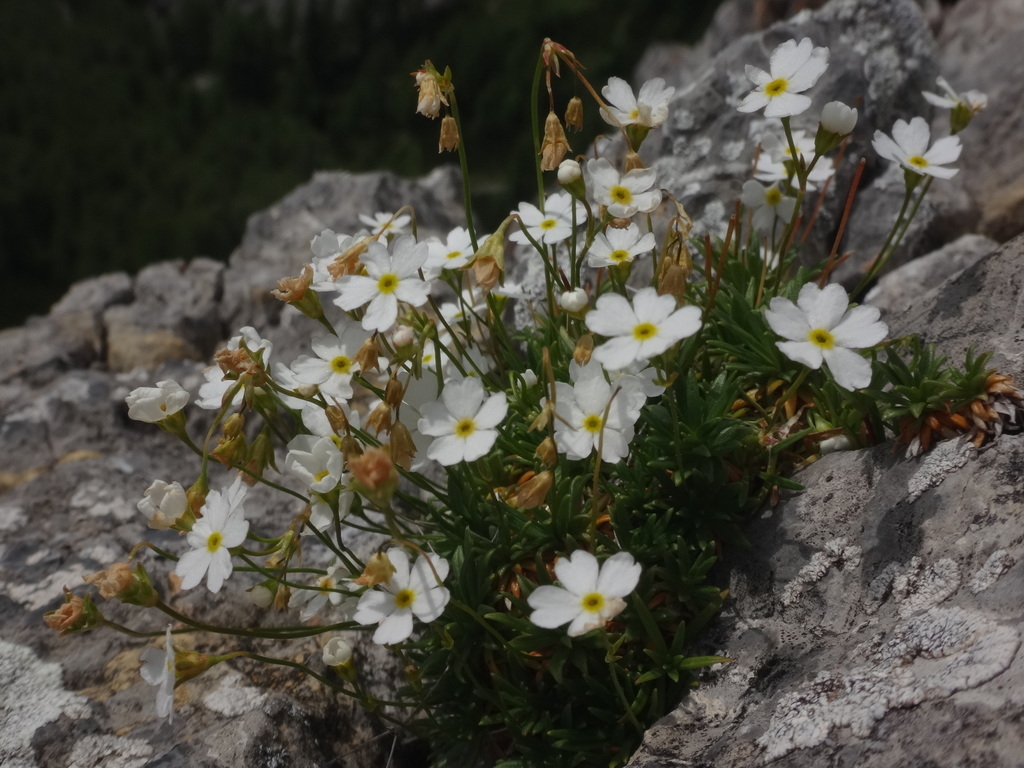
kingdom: Plantae
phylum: Tracheophyta
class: Magnoliopsida
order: Ericales
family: Primulaceae
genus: Androsace
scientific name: Androsace lactea
